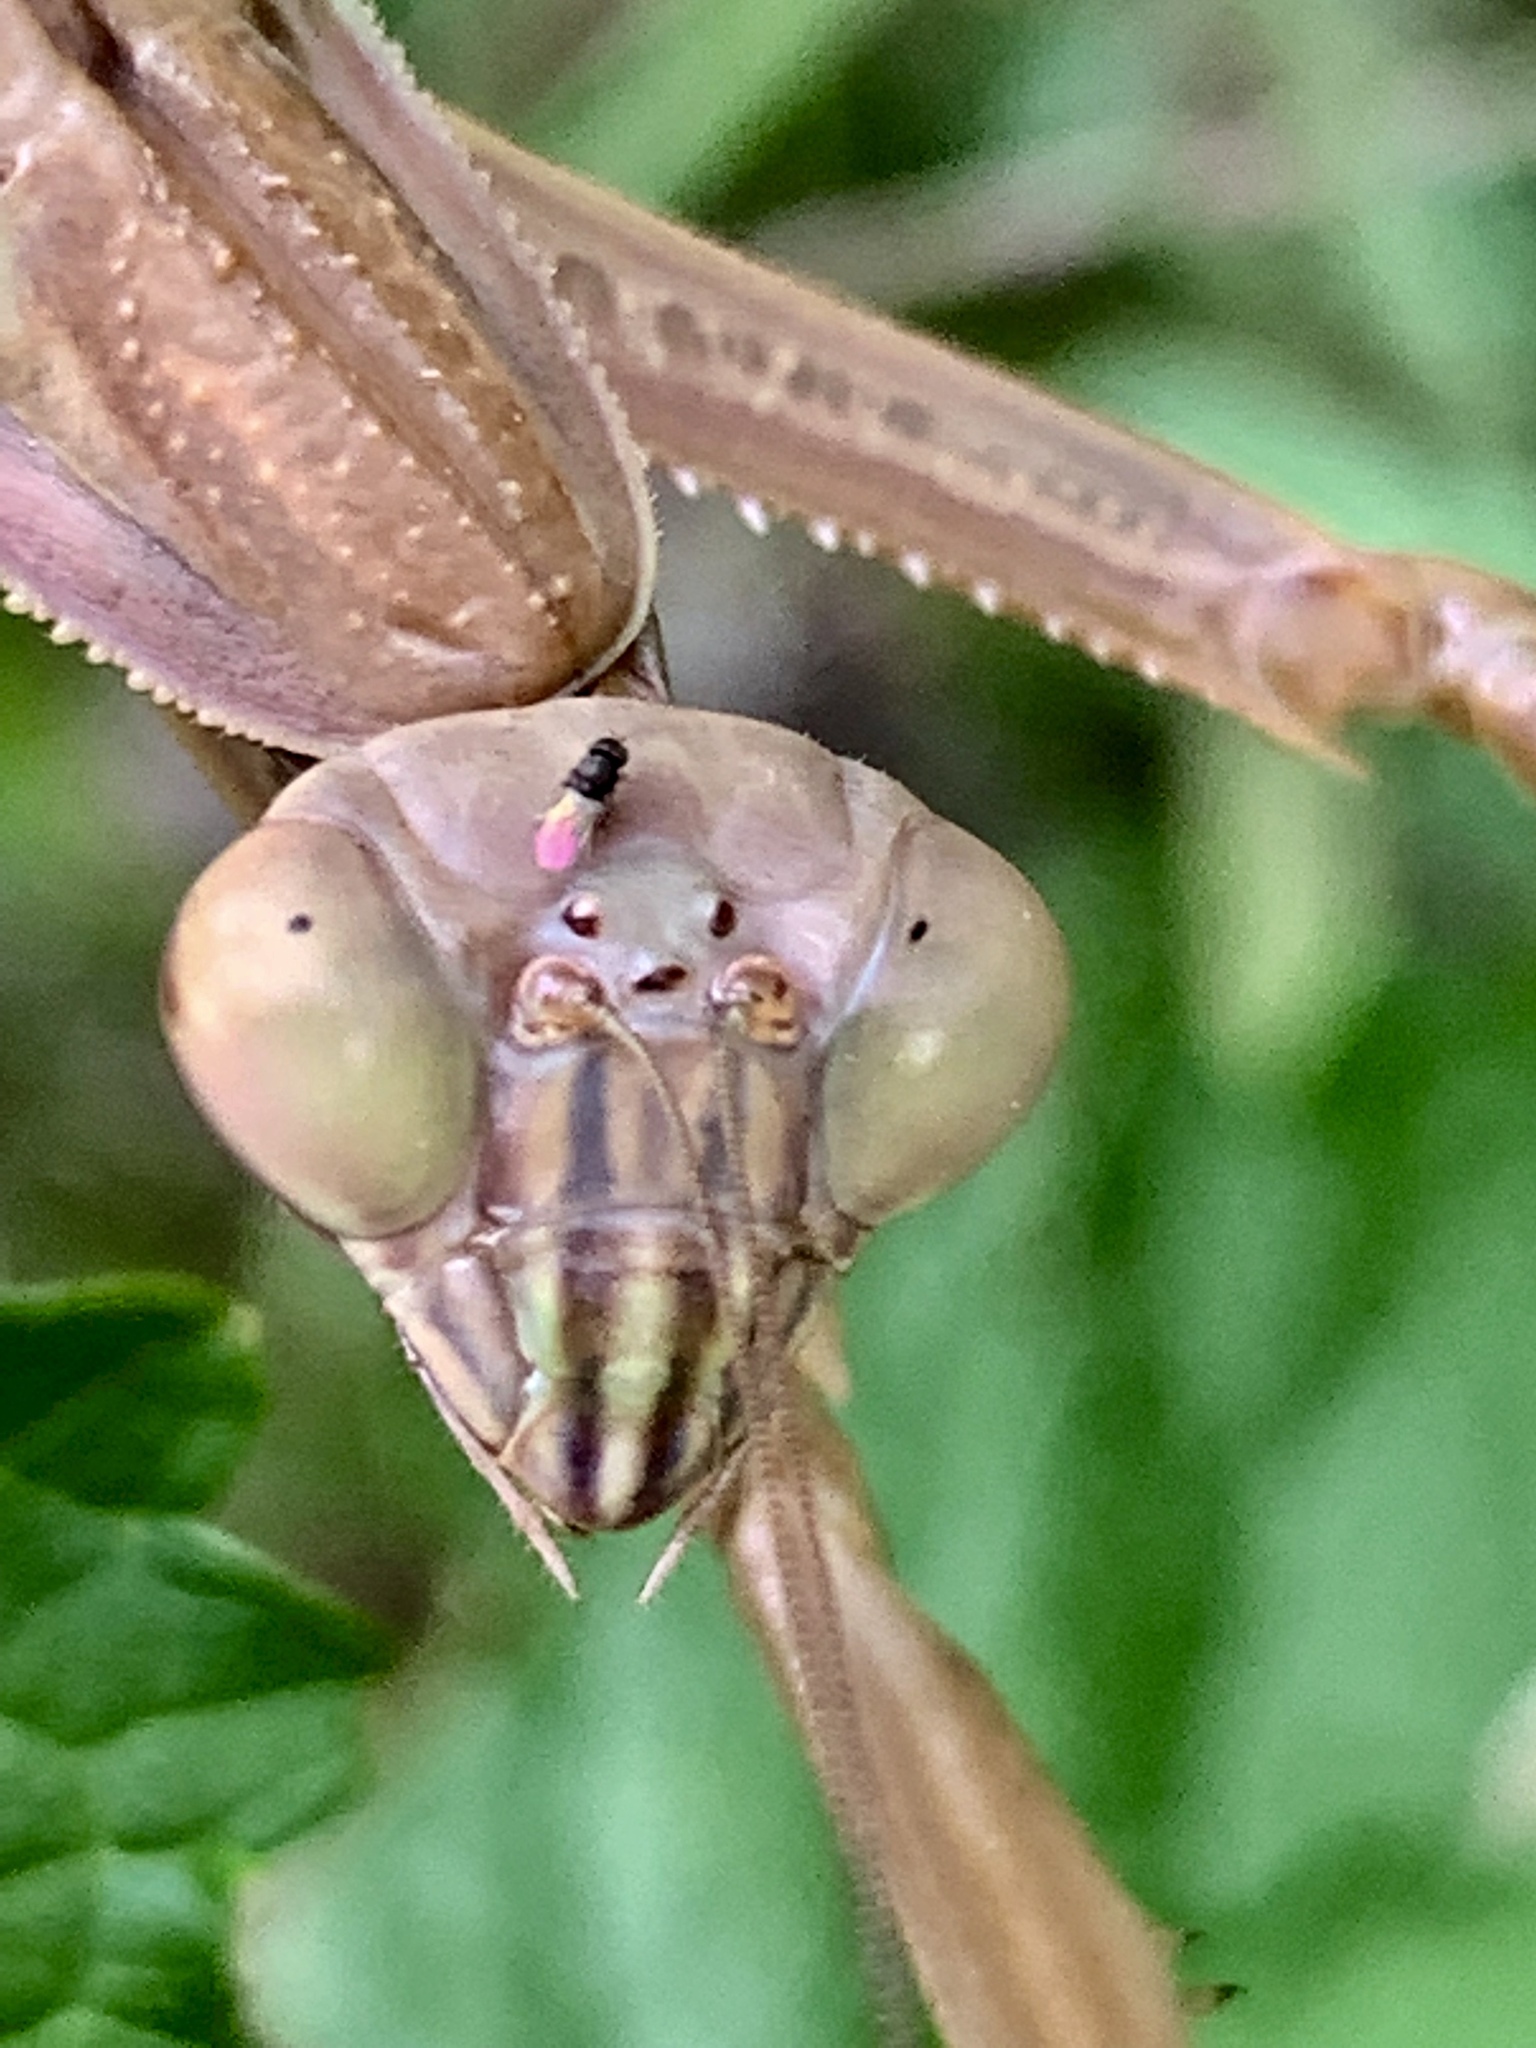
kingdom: Animalia
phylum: Arthropoda
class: Insecta
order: Mantodea
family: Mantidae
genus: Tenodera
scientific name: Tenodera sinensis
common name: Chinese mantis
